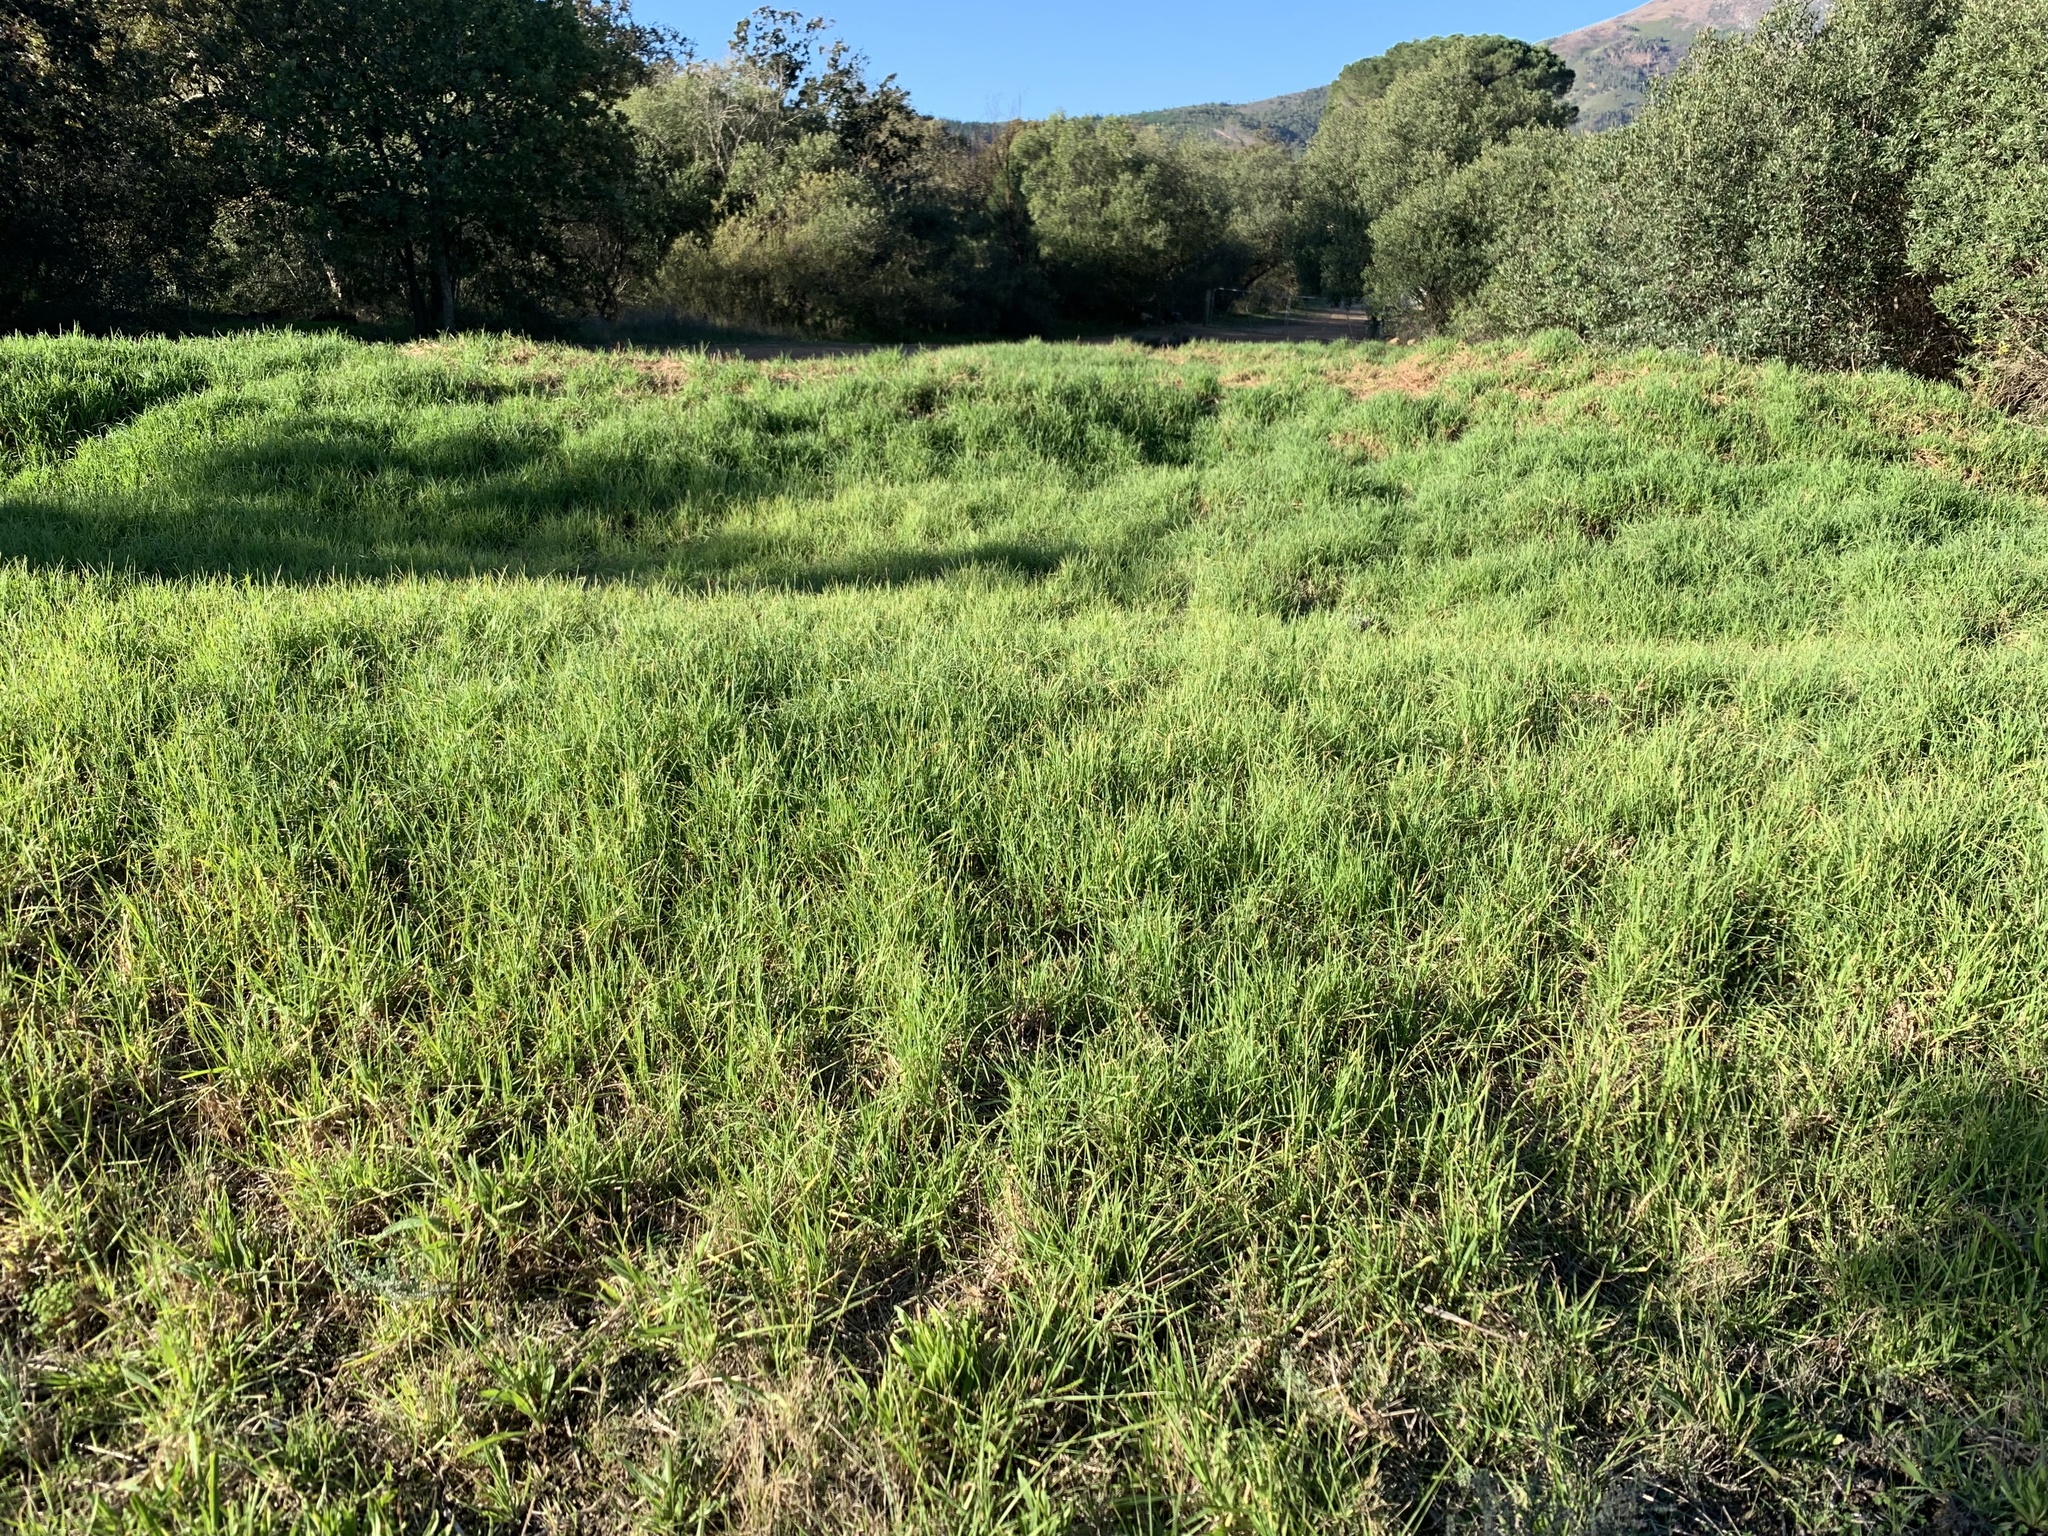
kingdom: Plantae
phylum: Tracheophyta
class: Liliopsida
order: Poales
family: Poaceae
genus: Cenchrus
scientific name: Cenchrus clandestinus
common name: Kikuyugrass
